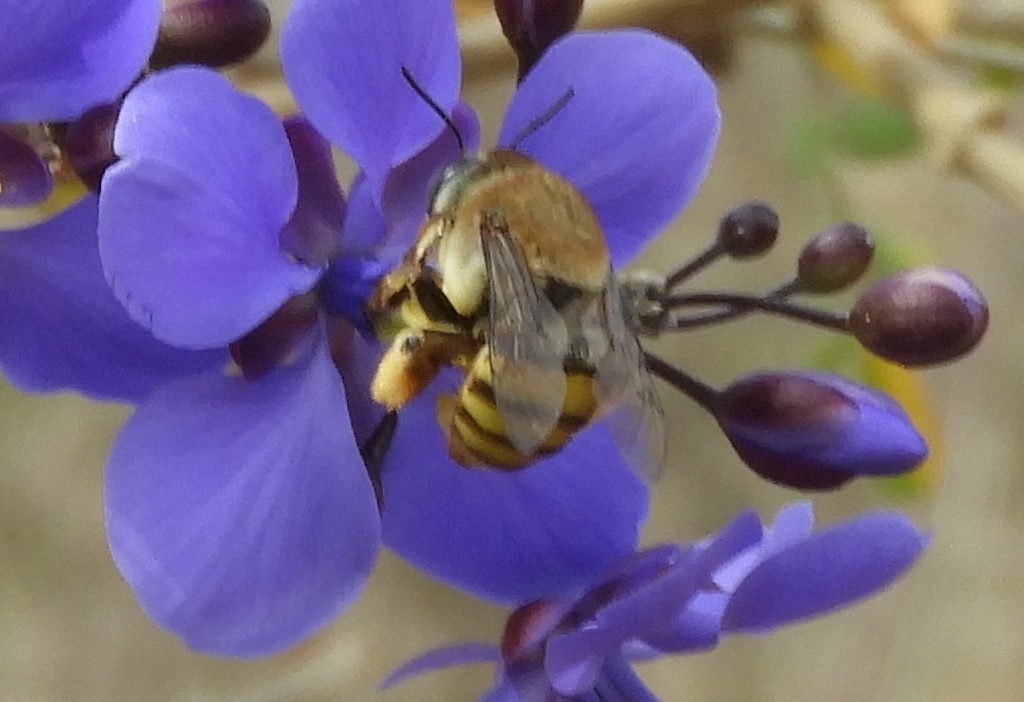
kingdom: Animalia
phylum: Arthropoda
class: Insecta
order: Hymenoptera
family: Apidae
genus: Centris
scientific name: Centris aethyctera
